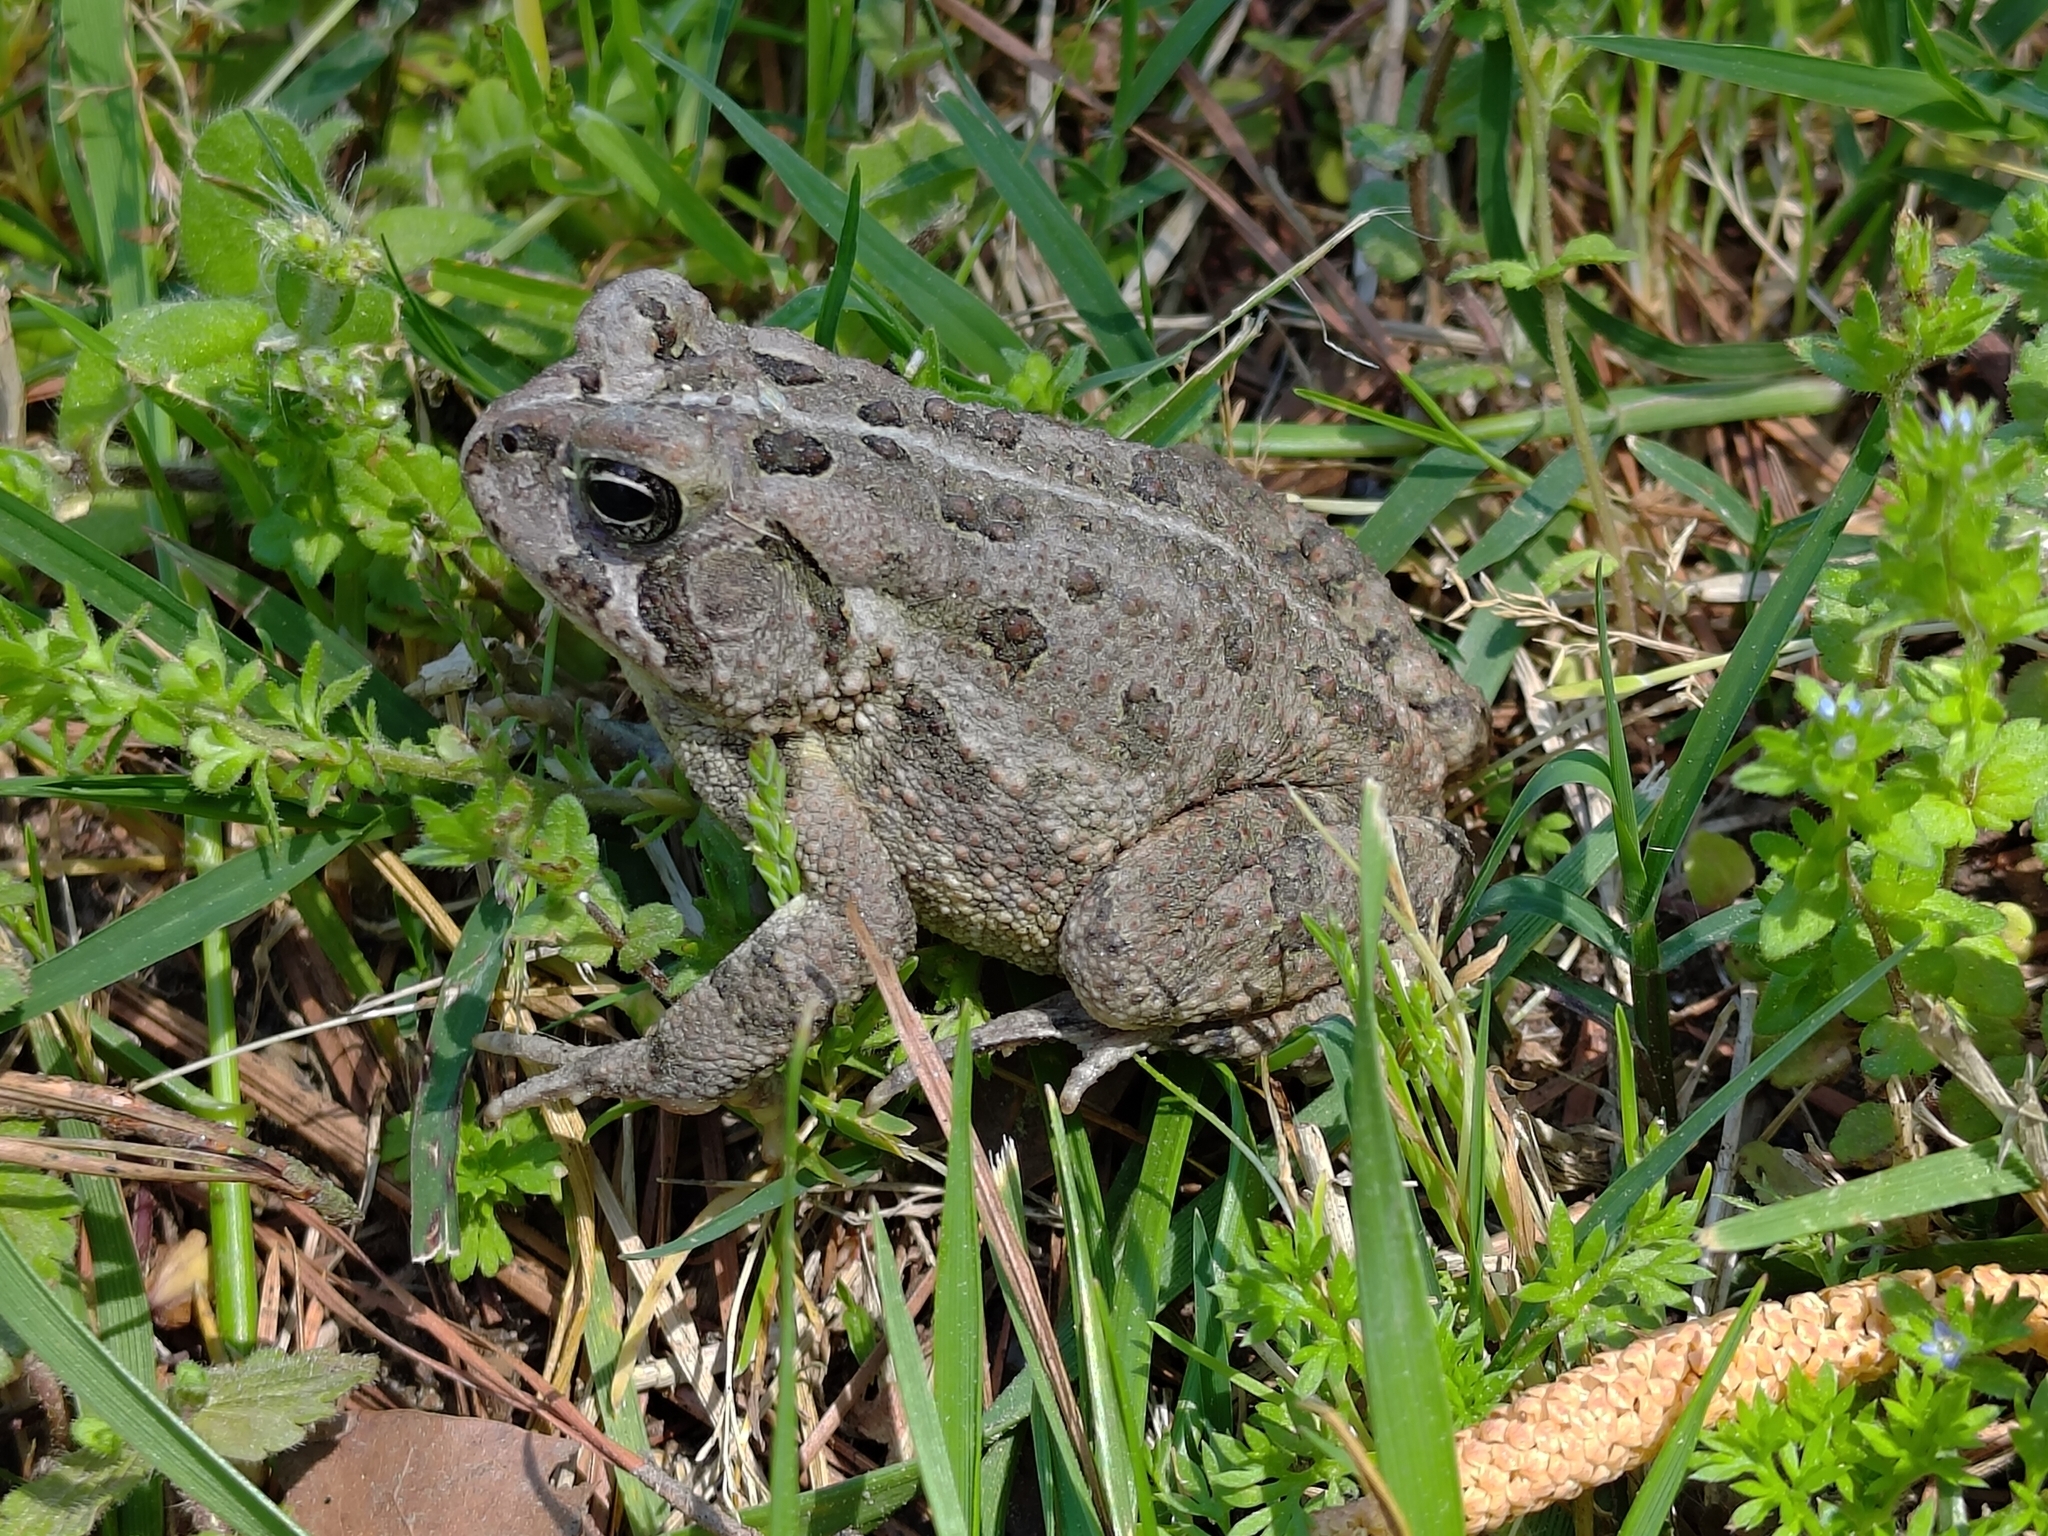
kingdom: Animalia
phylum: Chordata
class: Amphibia
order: Anura
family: Bufonidae
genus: Anaxyrus
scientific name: Anaxyrus fowleri
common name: Fowler's toad
